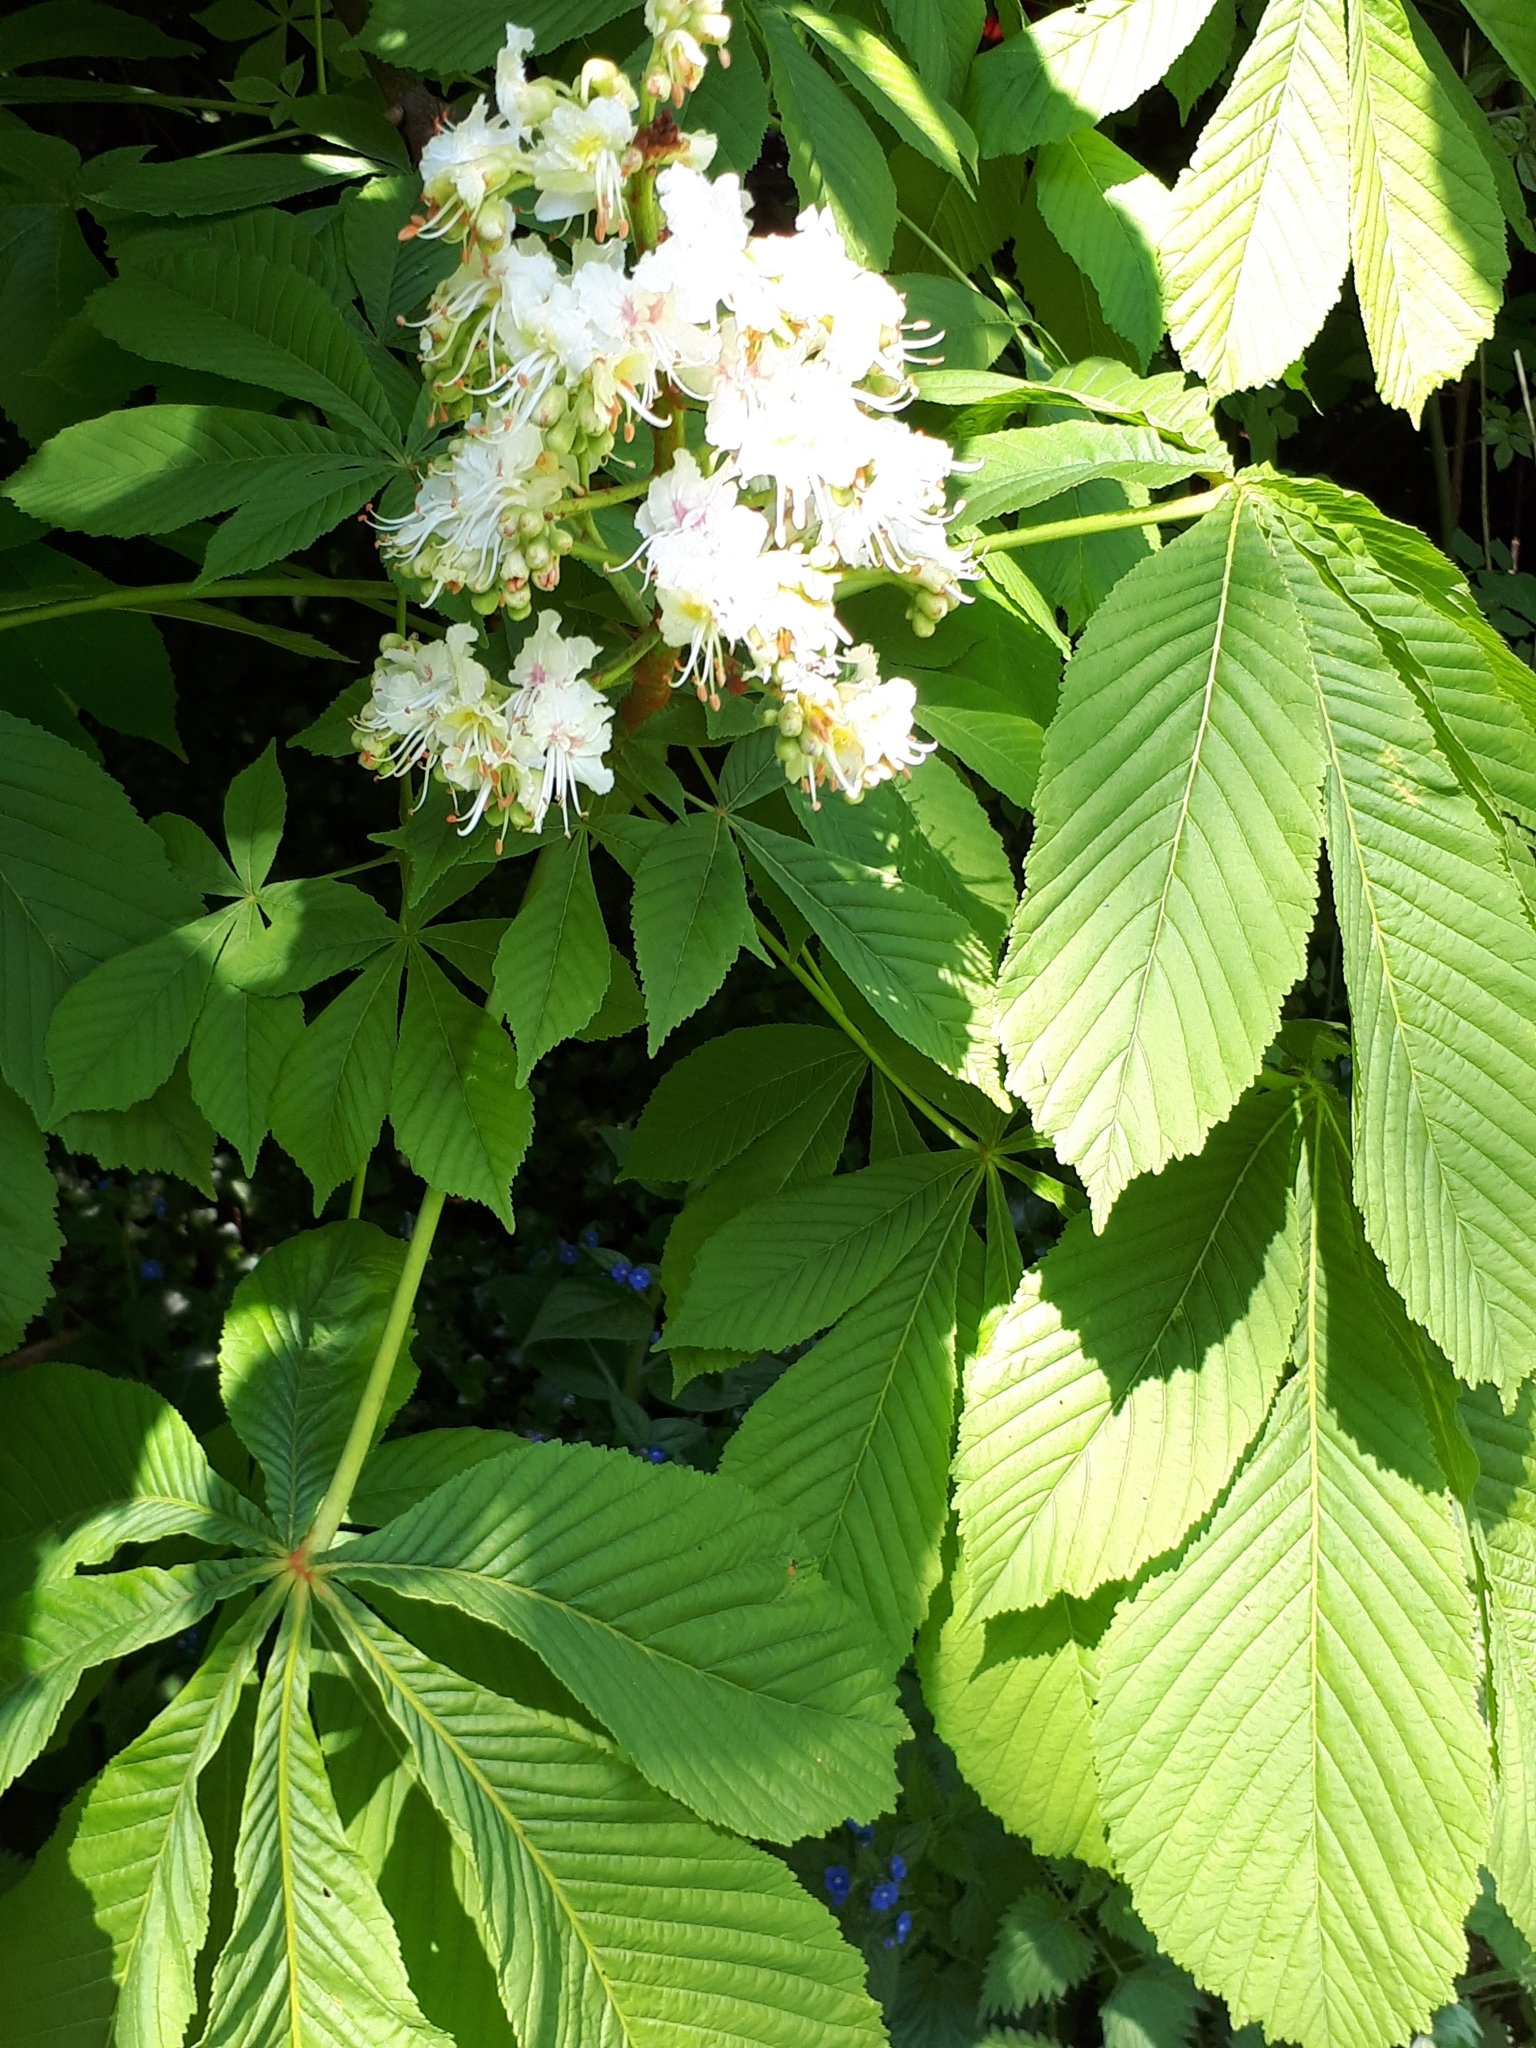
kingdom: Plantae
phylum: Tracheophyta
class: Magnoliopsida
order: Sapindales
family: Sapindaceae
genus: Aesculus
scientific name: Aesculus hippocastanum
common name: Horse-chestnut
